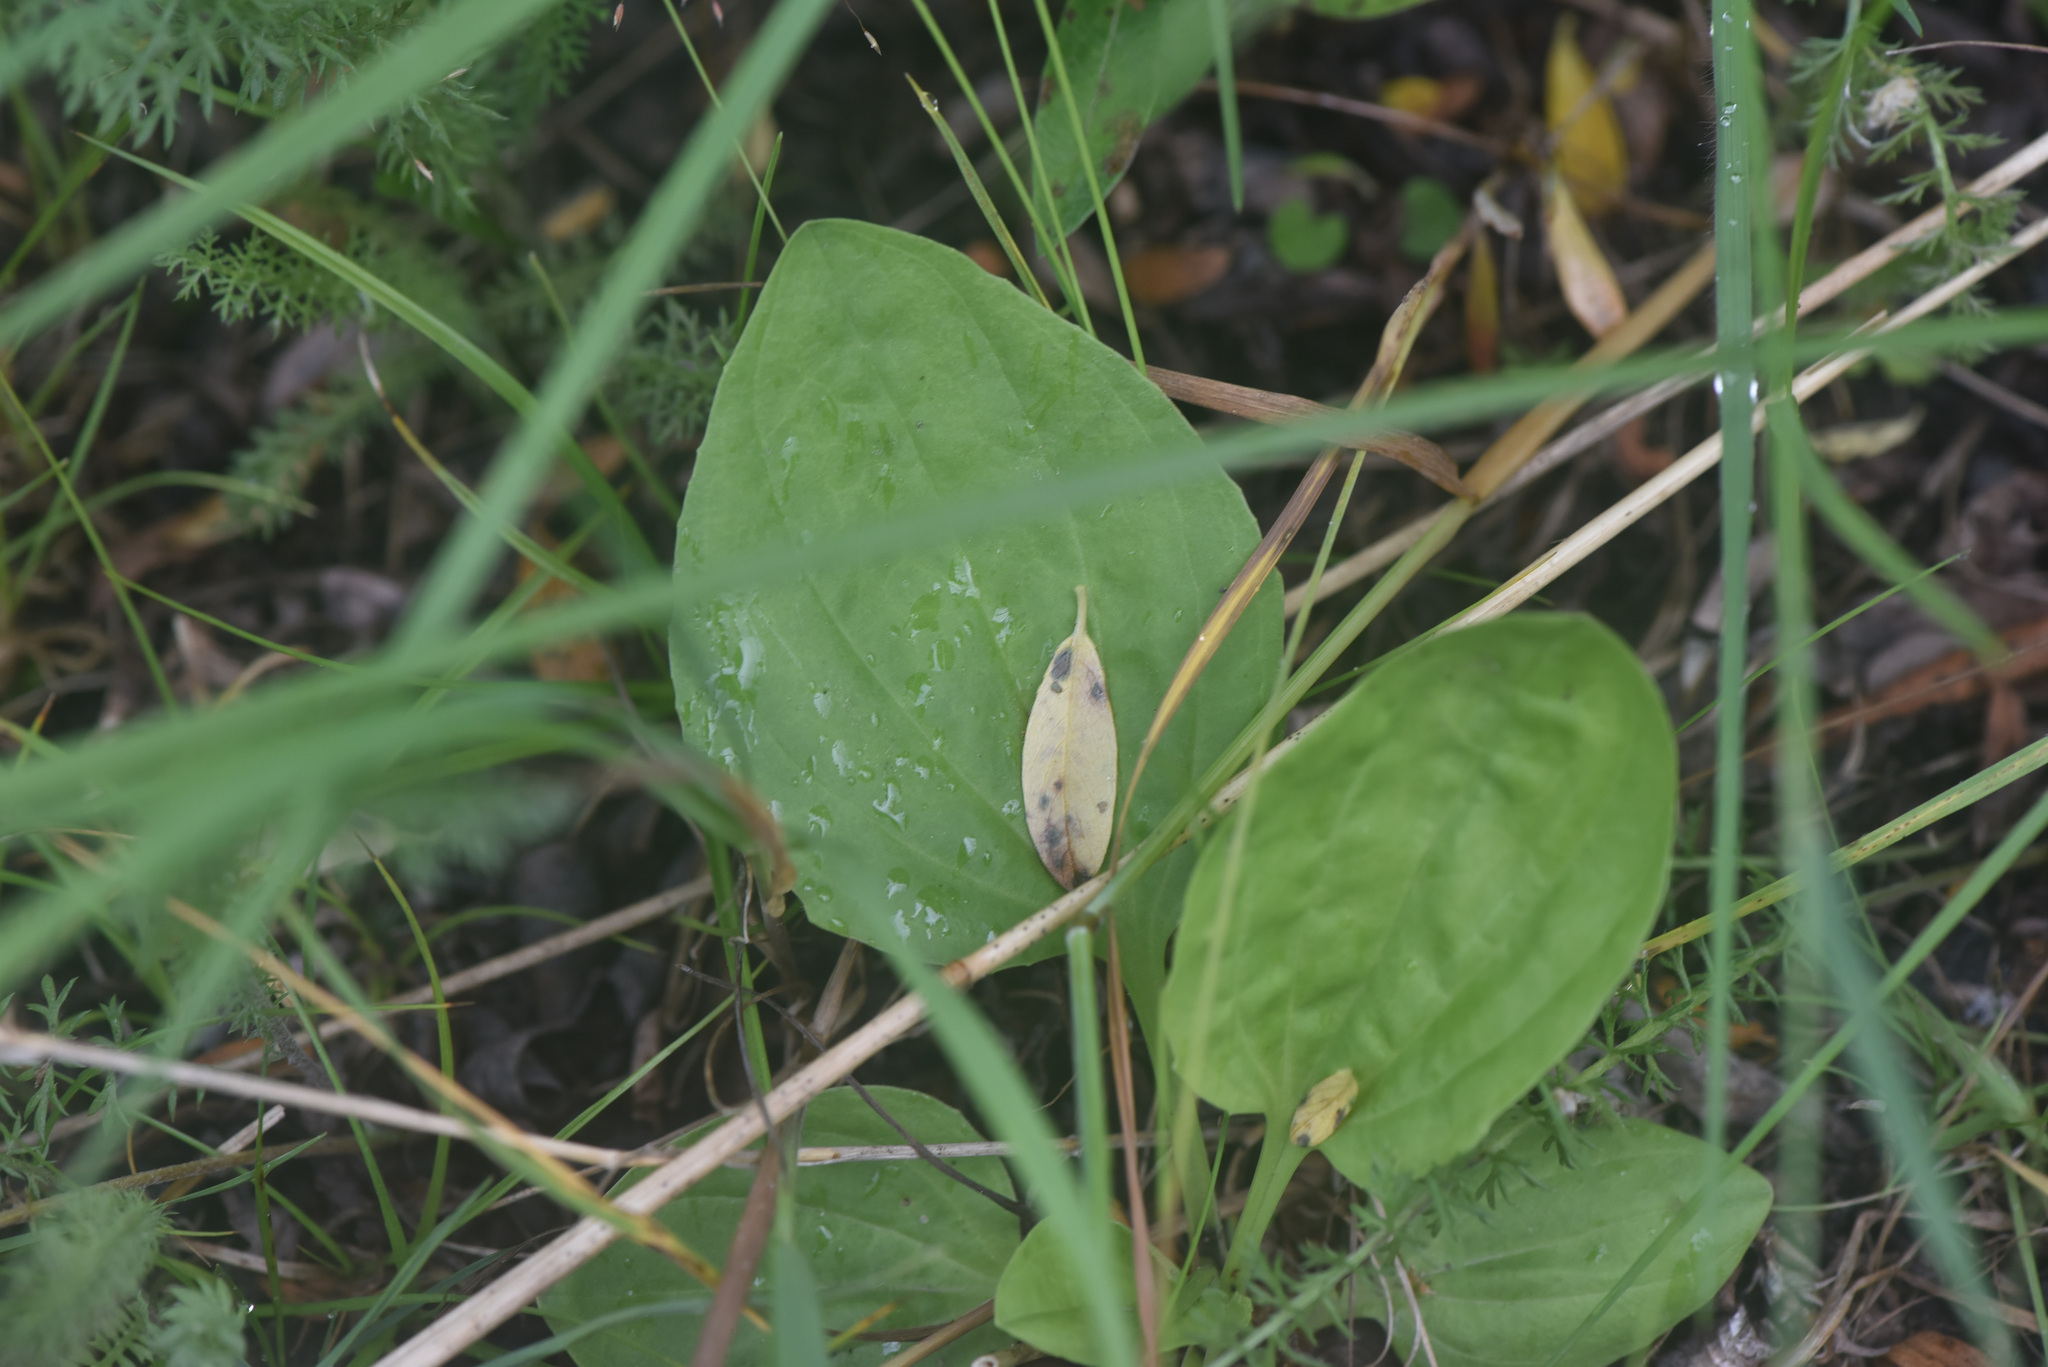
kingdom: Plantae
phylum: Tracheophyta
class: Magnoliopsida
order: Lamiales
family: Plantaginaceae
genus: Plantago
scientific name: Plantago major
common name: Common plantain
